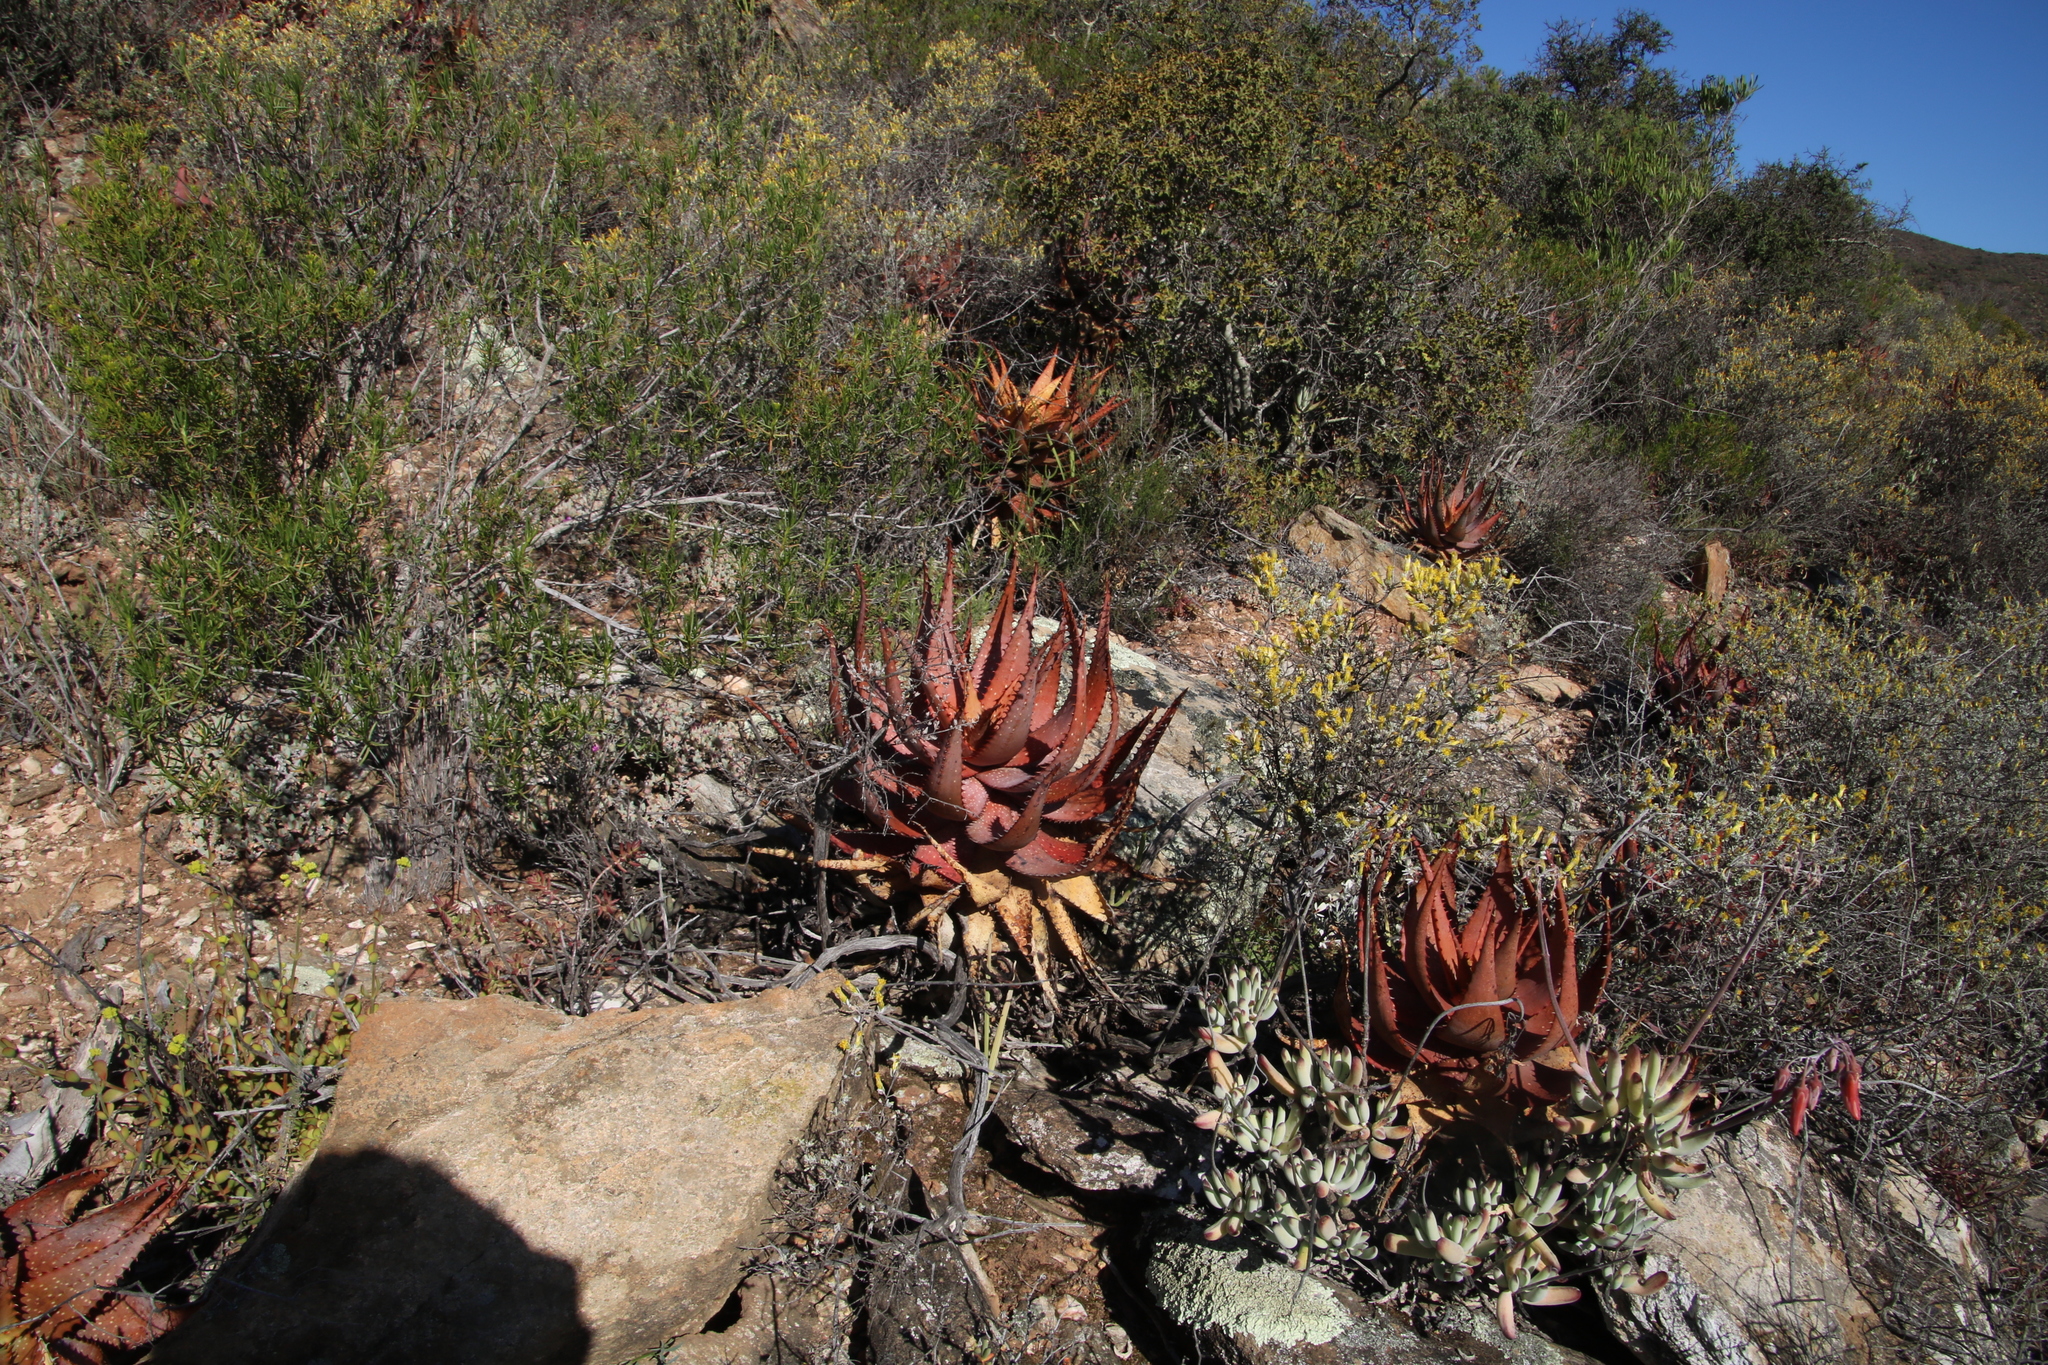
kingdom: Plantae
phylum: Tracheophyta
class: Liliopsida
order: Asparagales
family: Asphodelaceae
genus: Aloe
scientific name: Aloe microstigma
